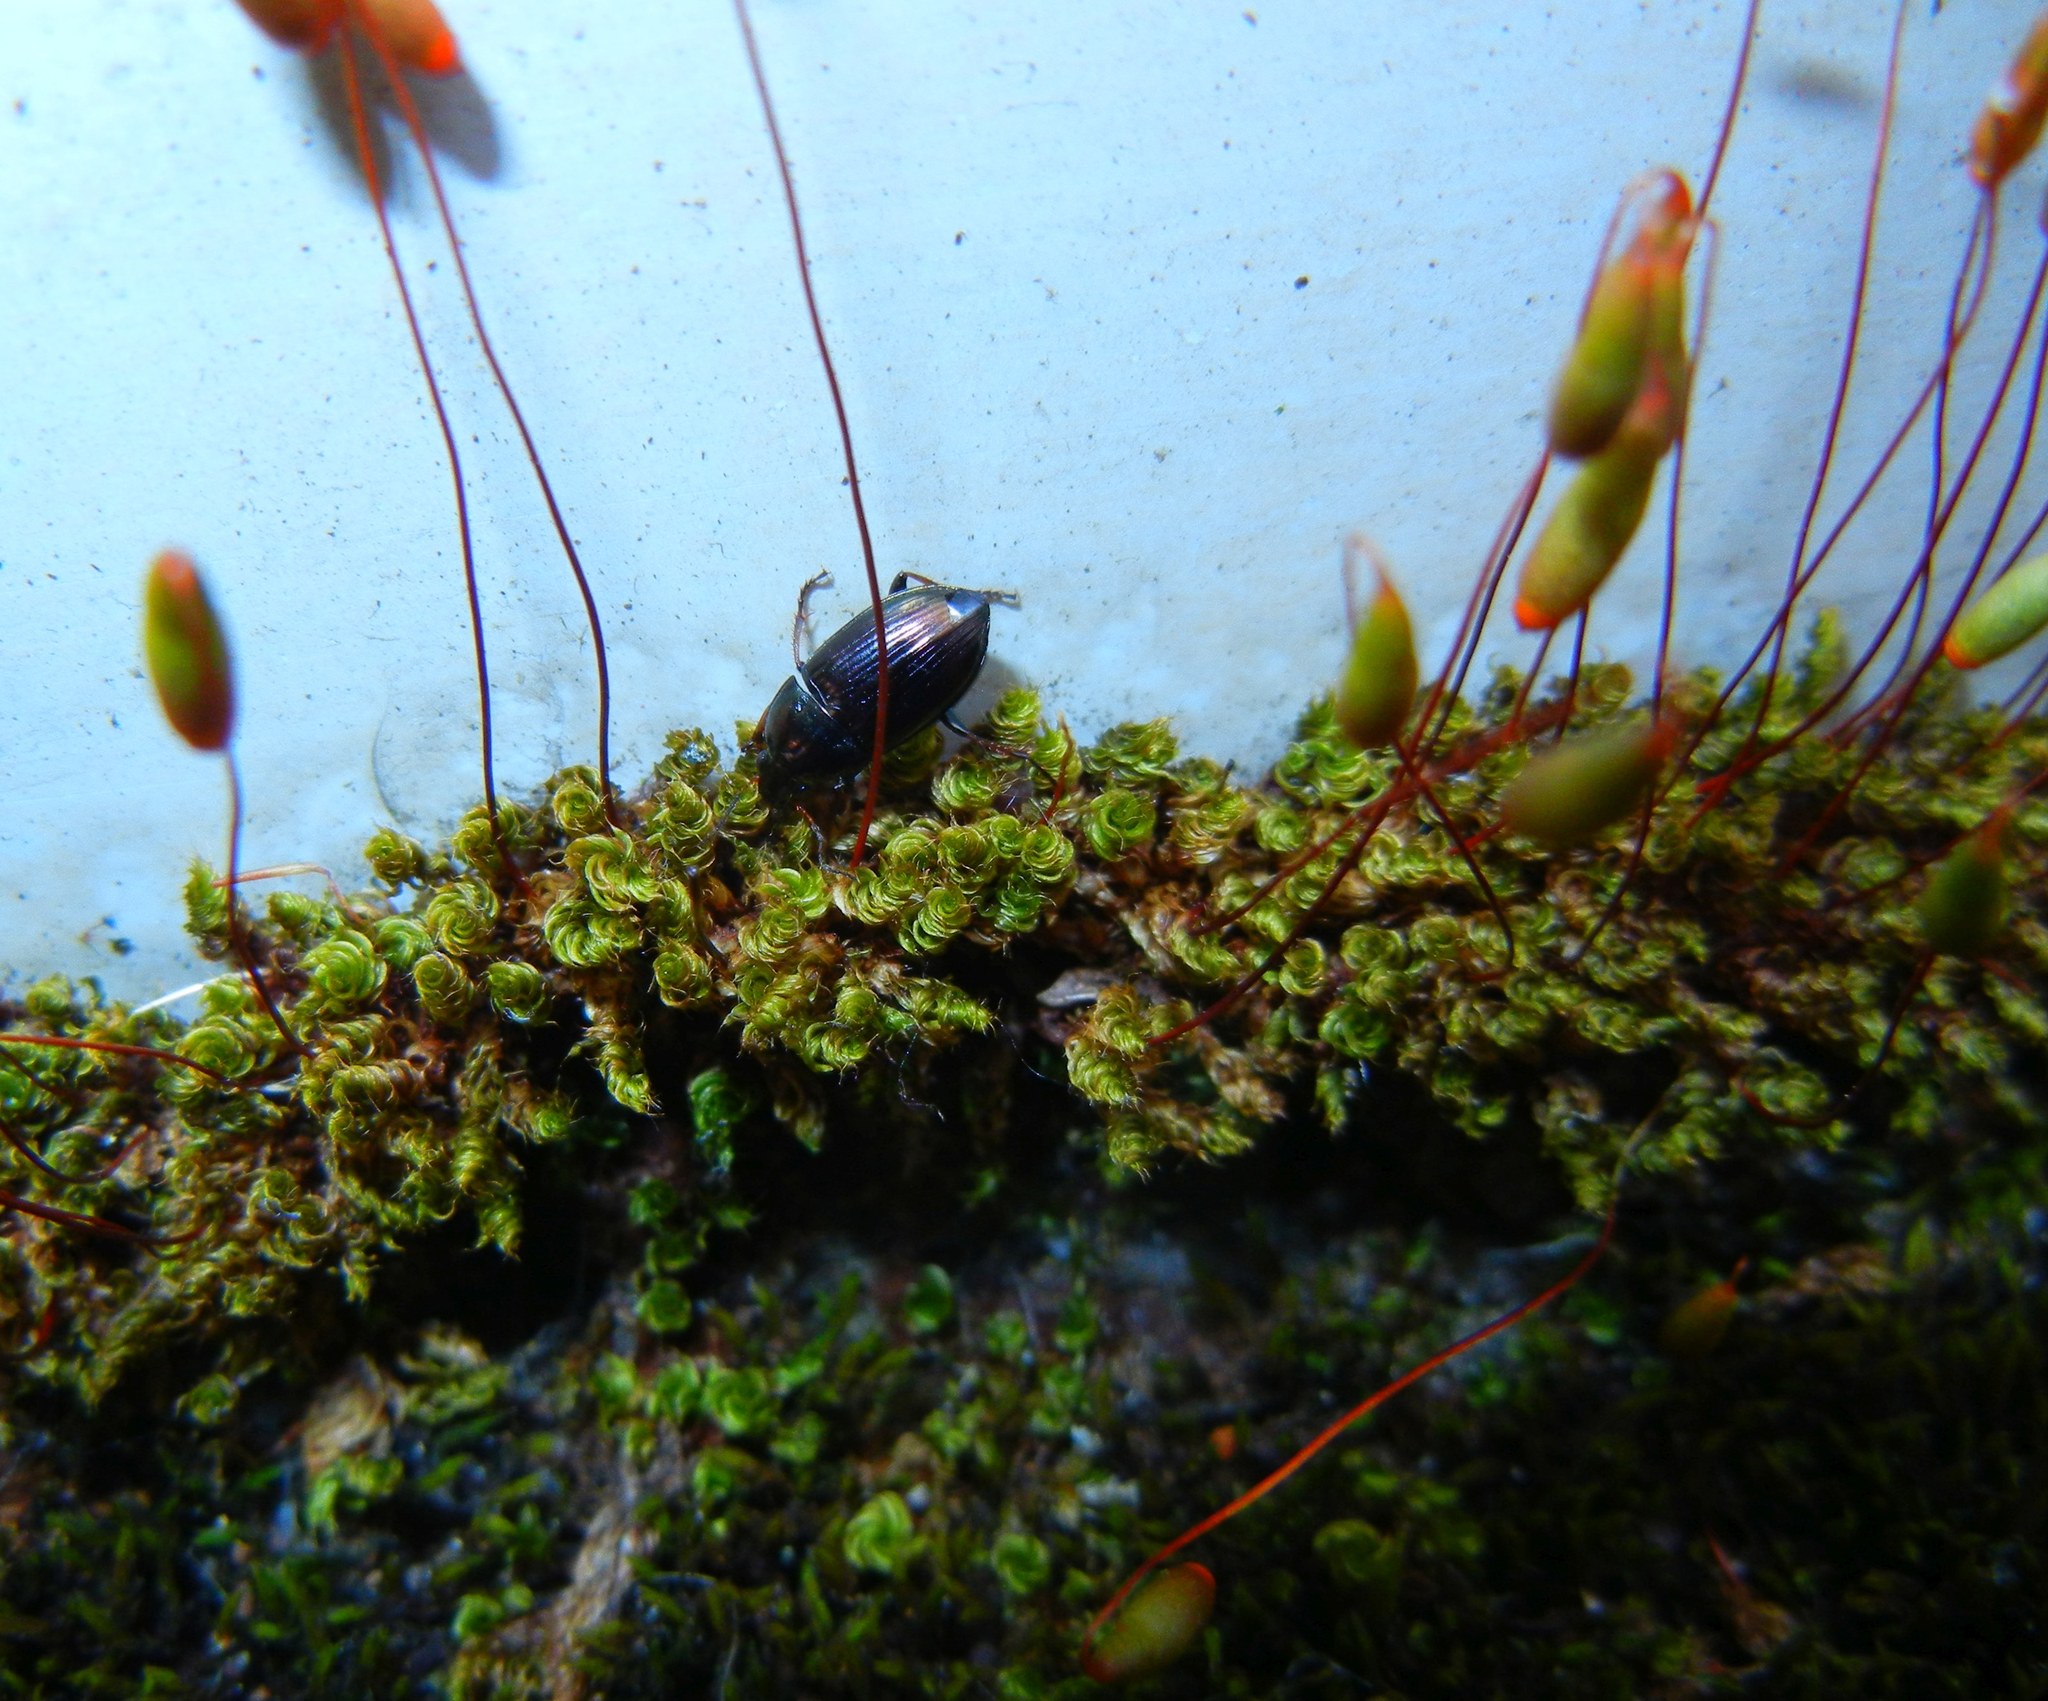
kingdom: Plantae
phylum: Bryophyta
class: Bryopsida
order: Bryales
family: Bryaceae
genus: Rosulabryum
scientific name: Rosulabryum capillare
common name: Capillary thread-moss
